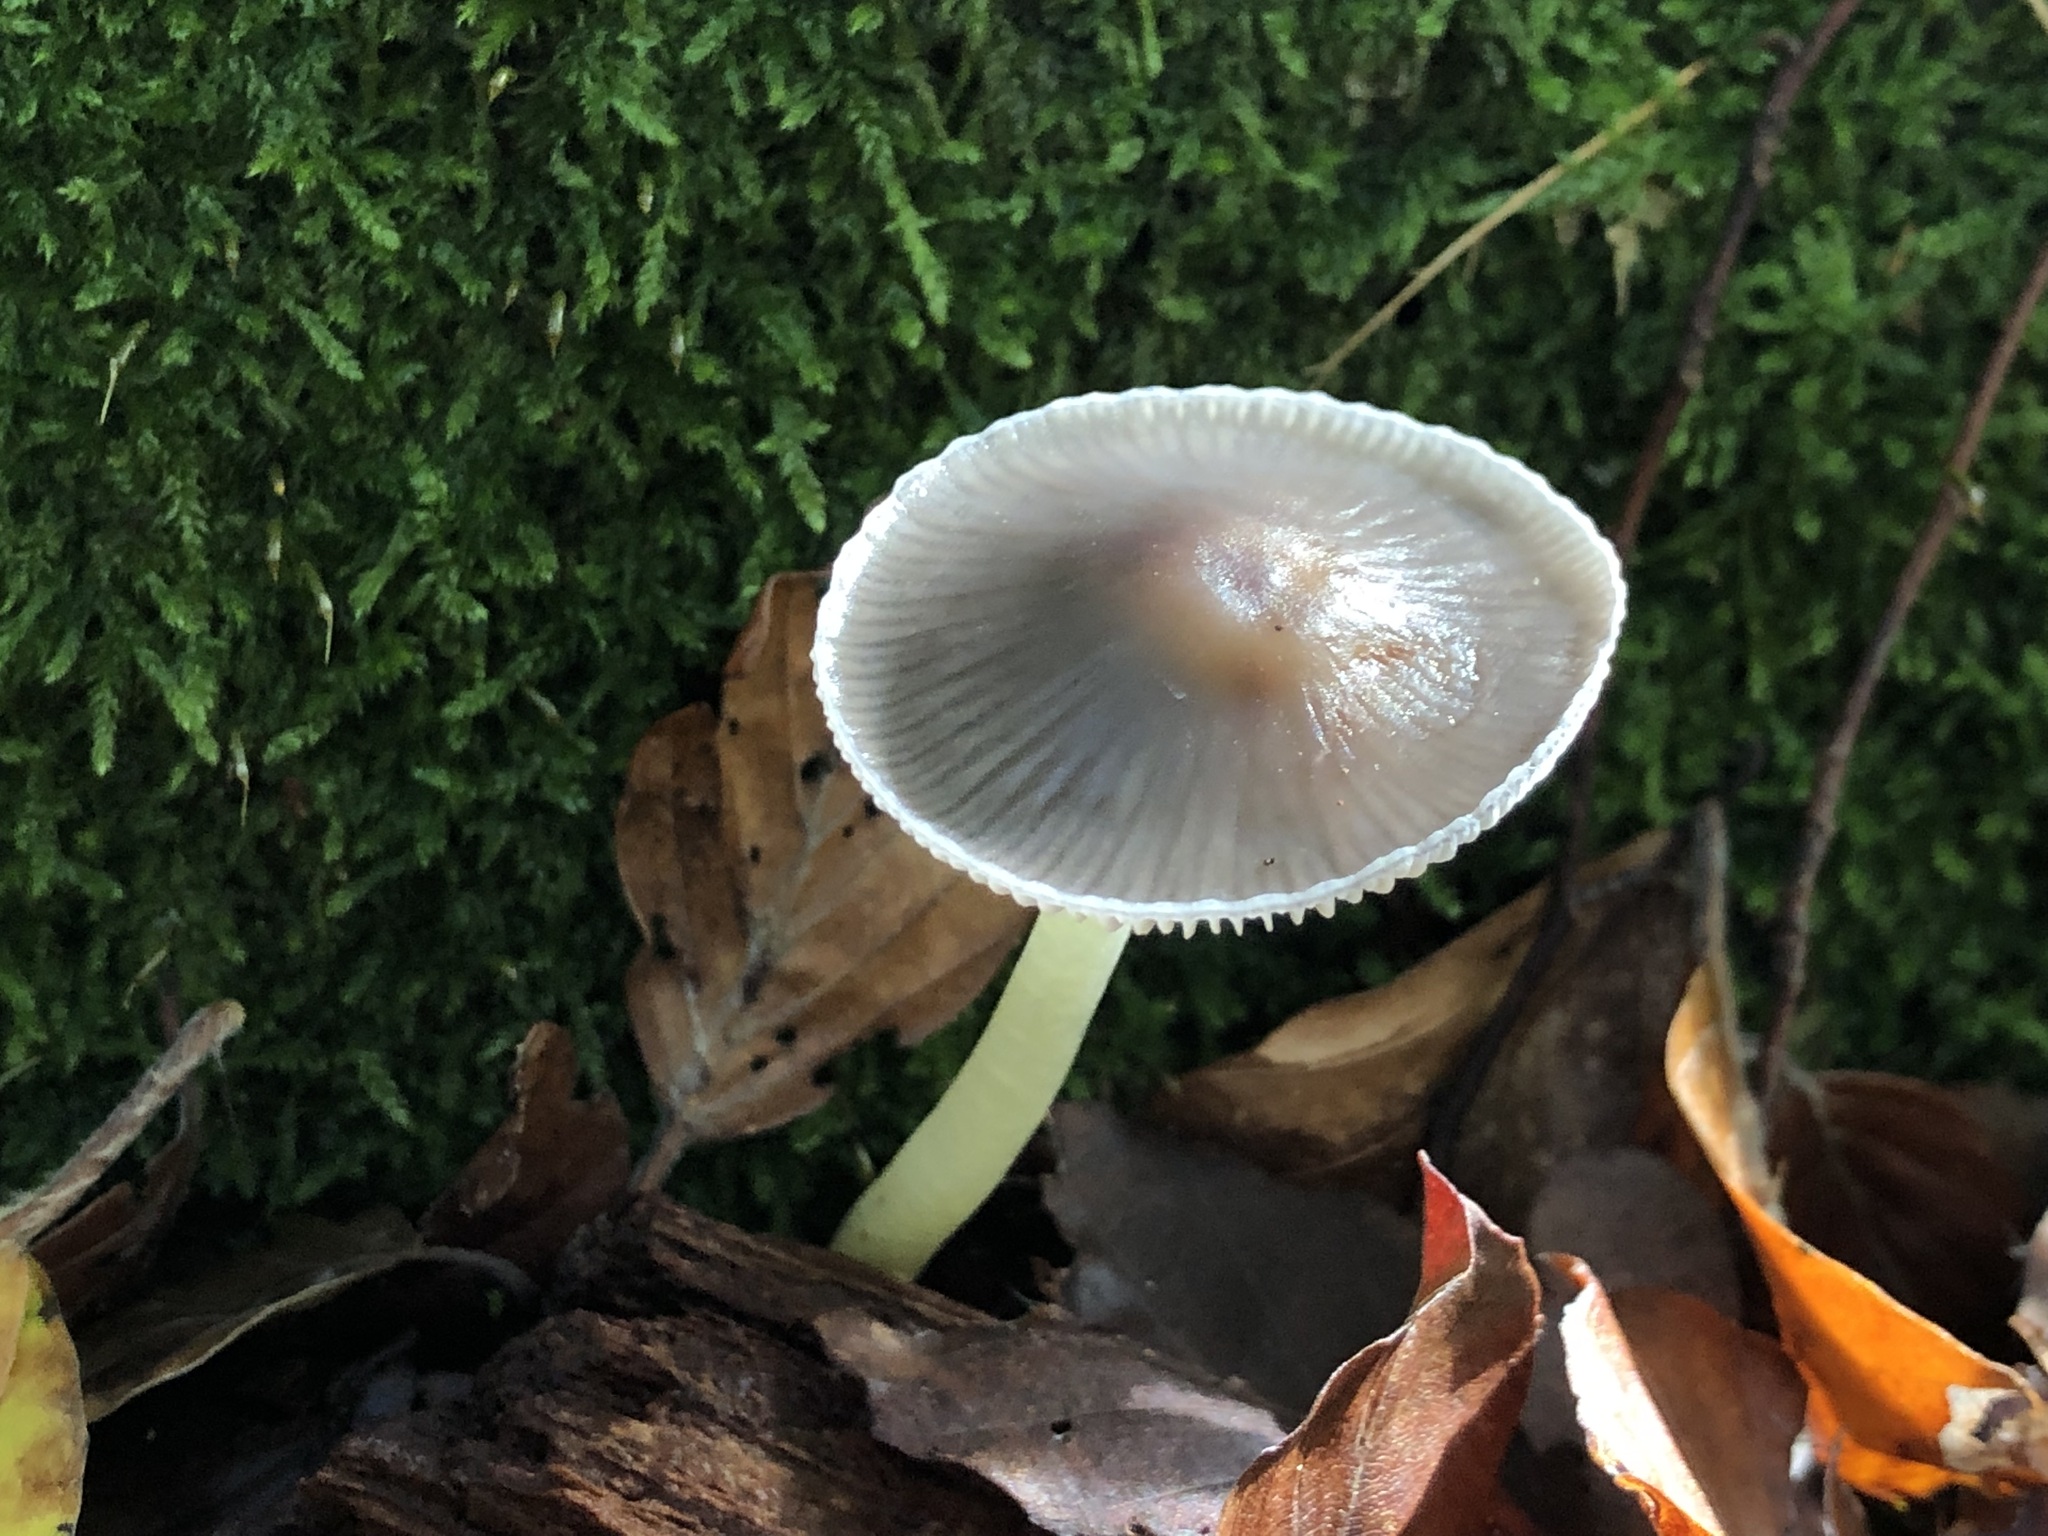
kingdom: Fungi
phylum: Basidiomycota
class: Agaricomycetes
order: Agaricales
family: Mycenaceae
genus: Mycena
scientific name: Mycena epipterygia
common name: Yellowleg bonnet
